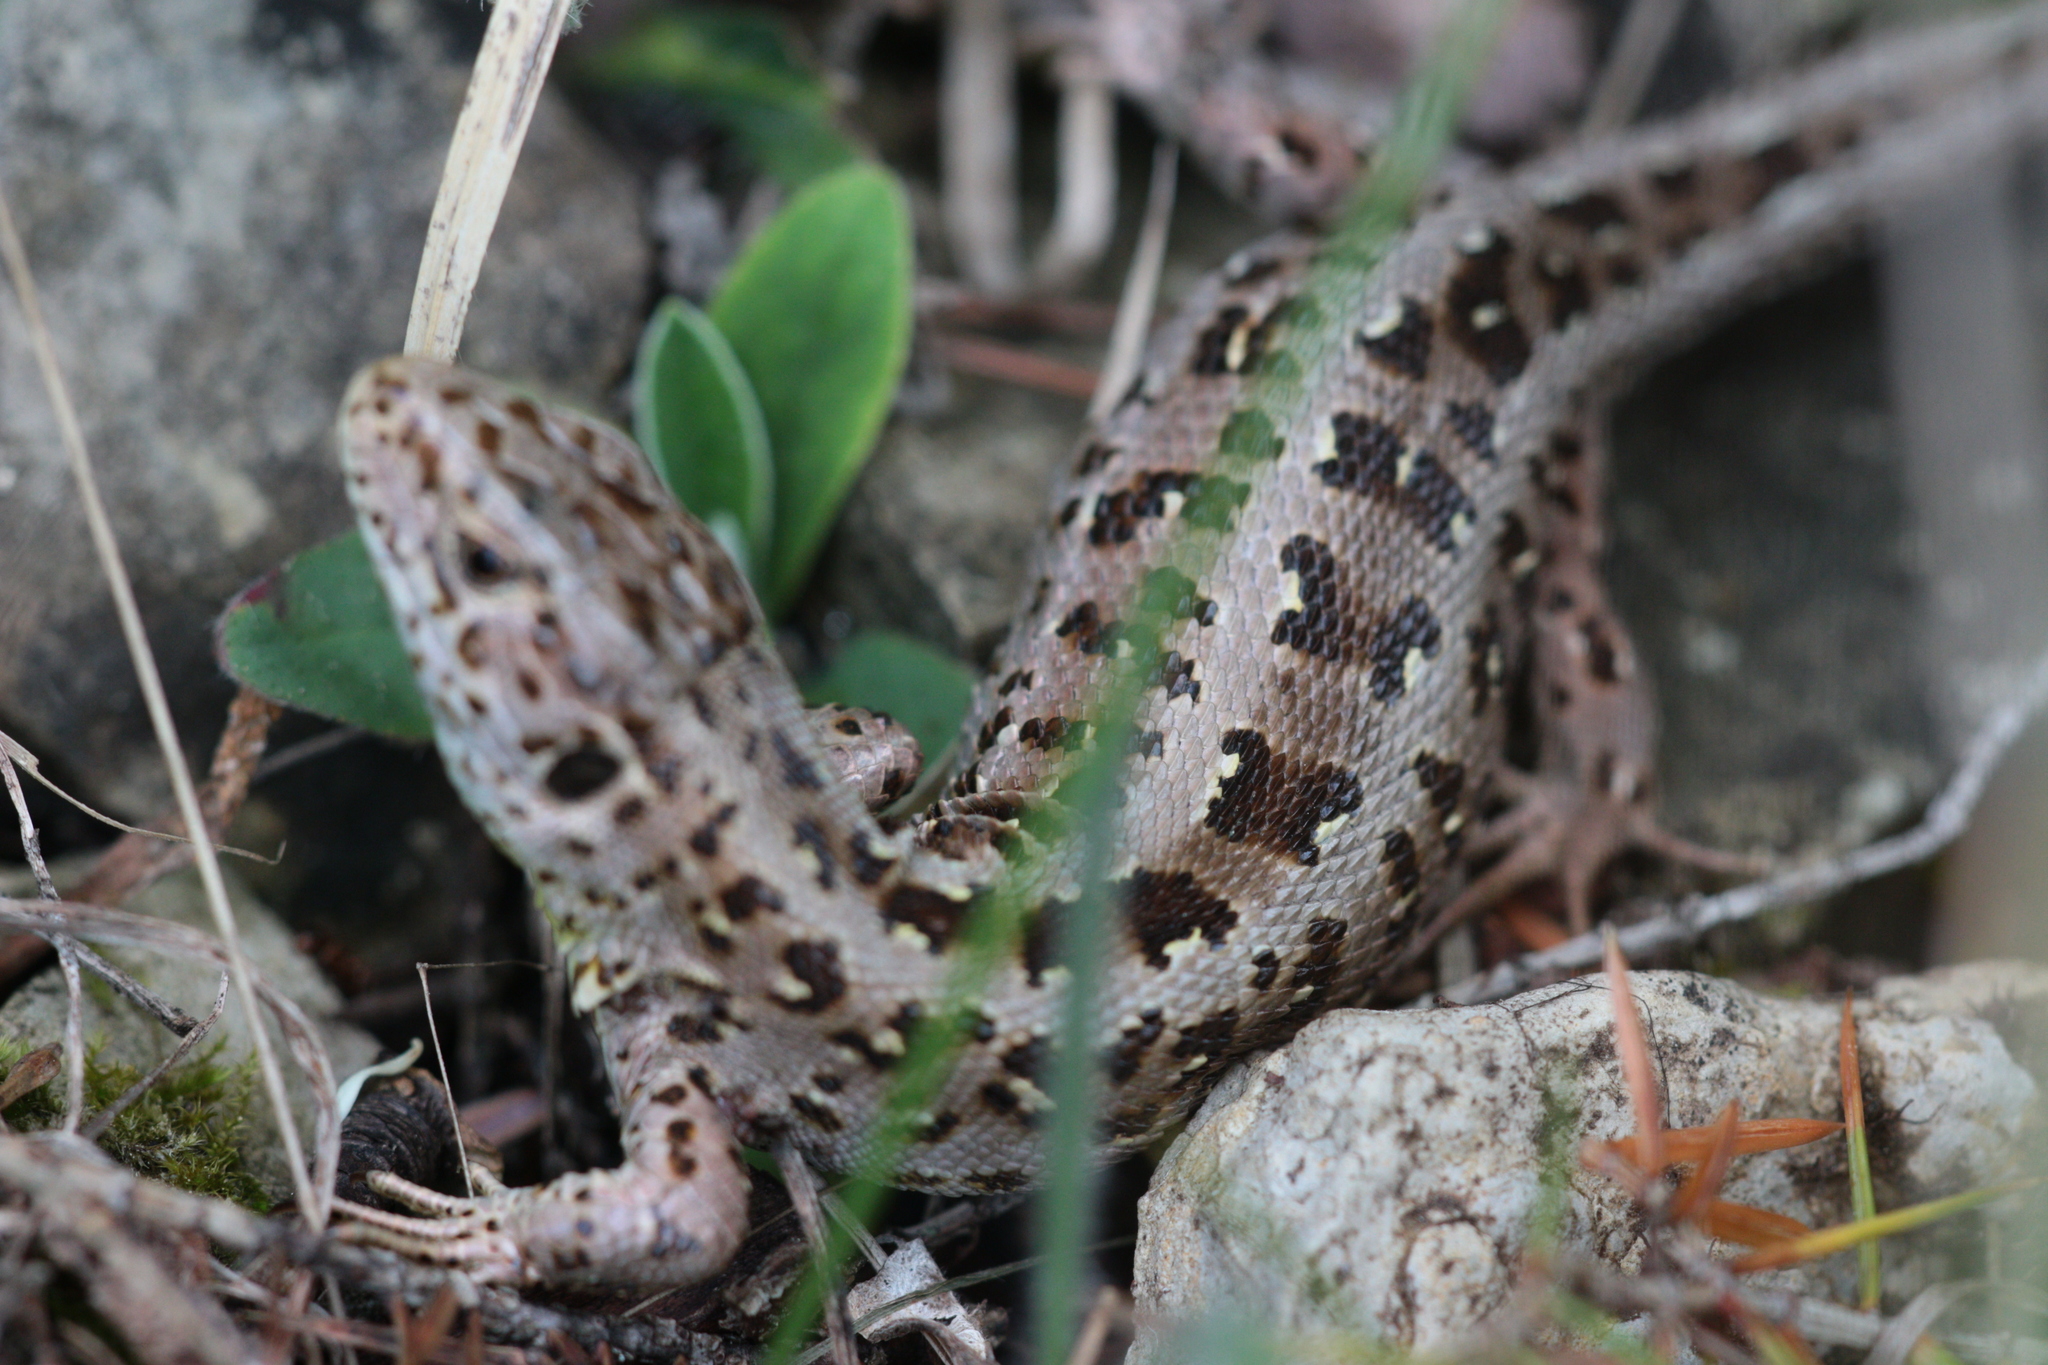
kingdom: Animalia
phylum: Chordata
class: Squamata
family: Lacertidae
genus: Lacerta
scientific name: Lacerta agilis
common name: Sand lizard
